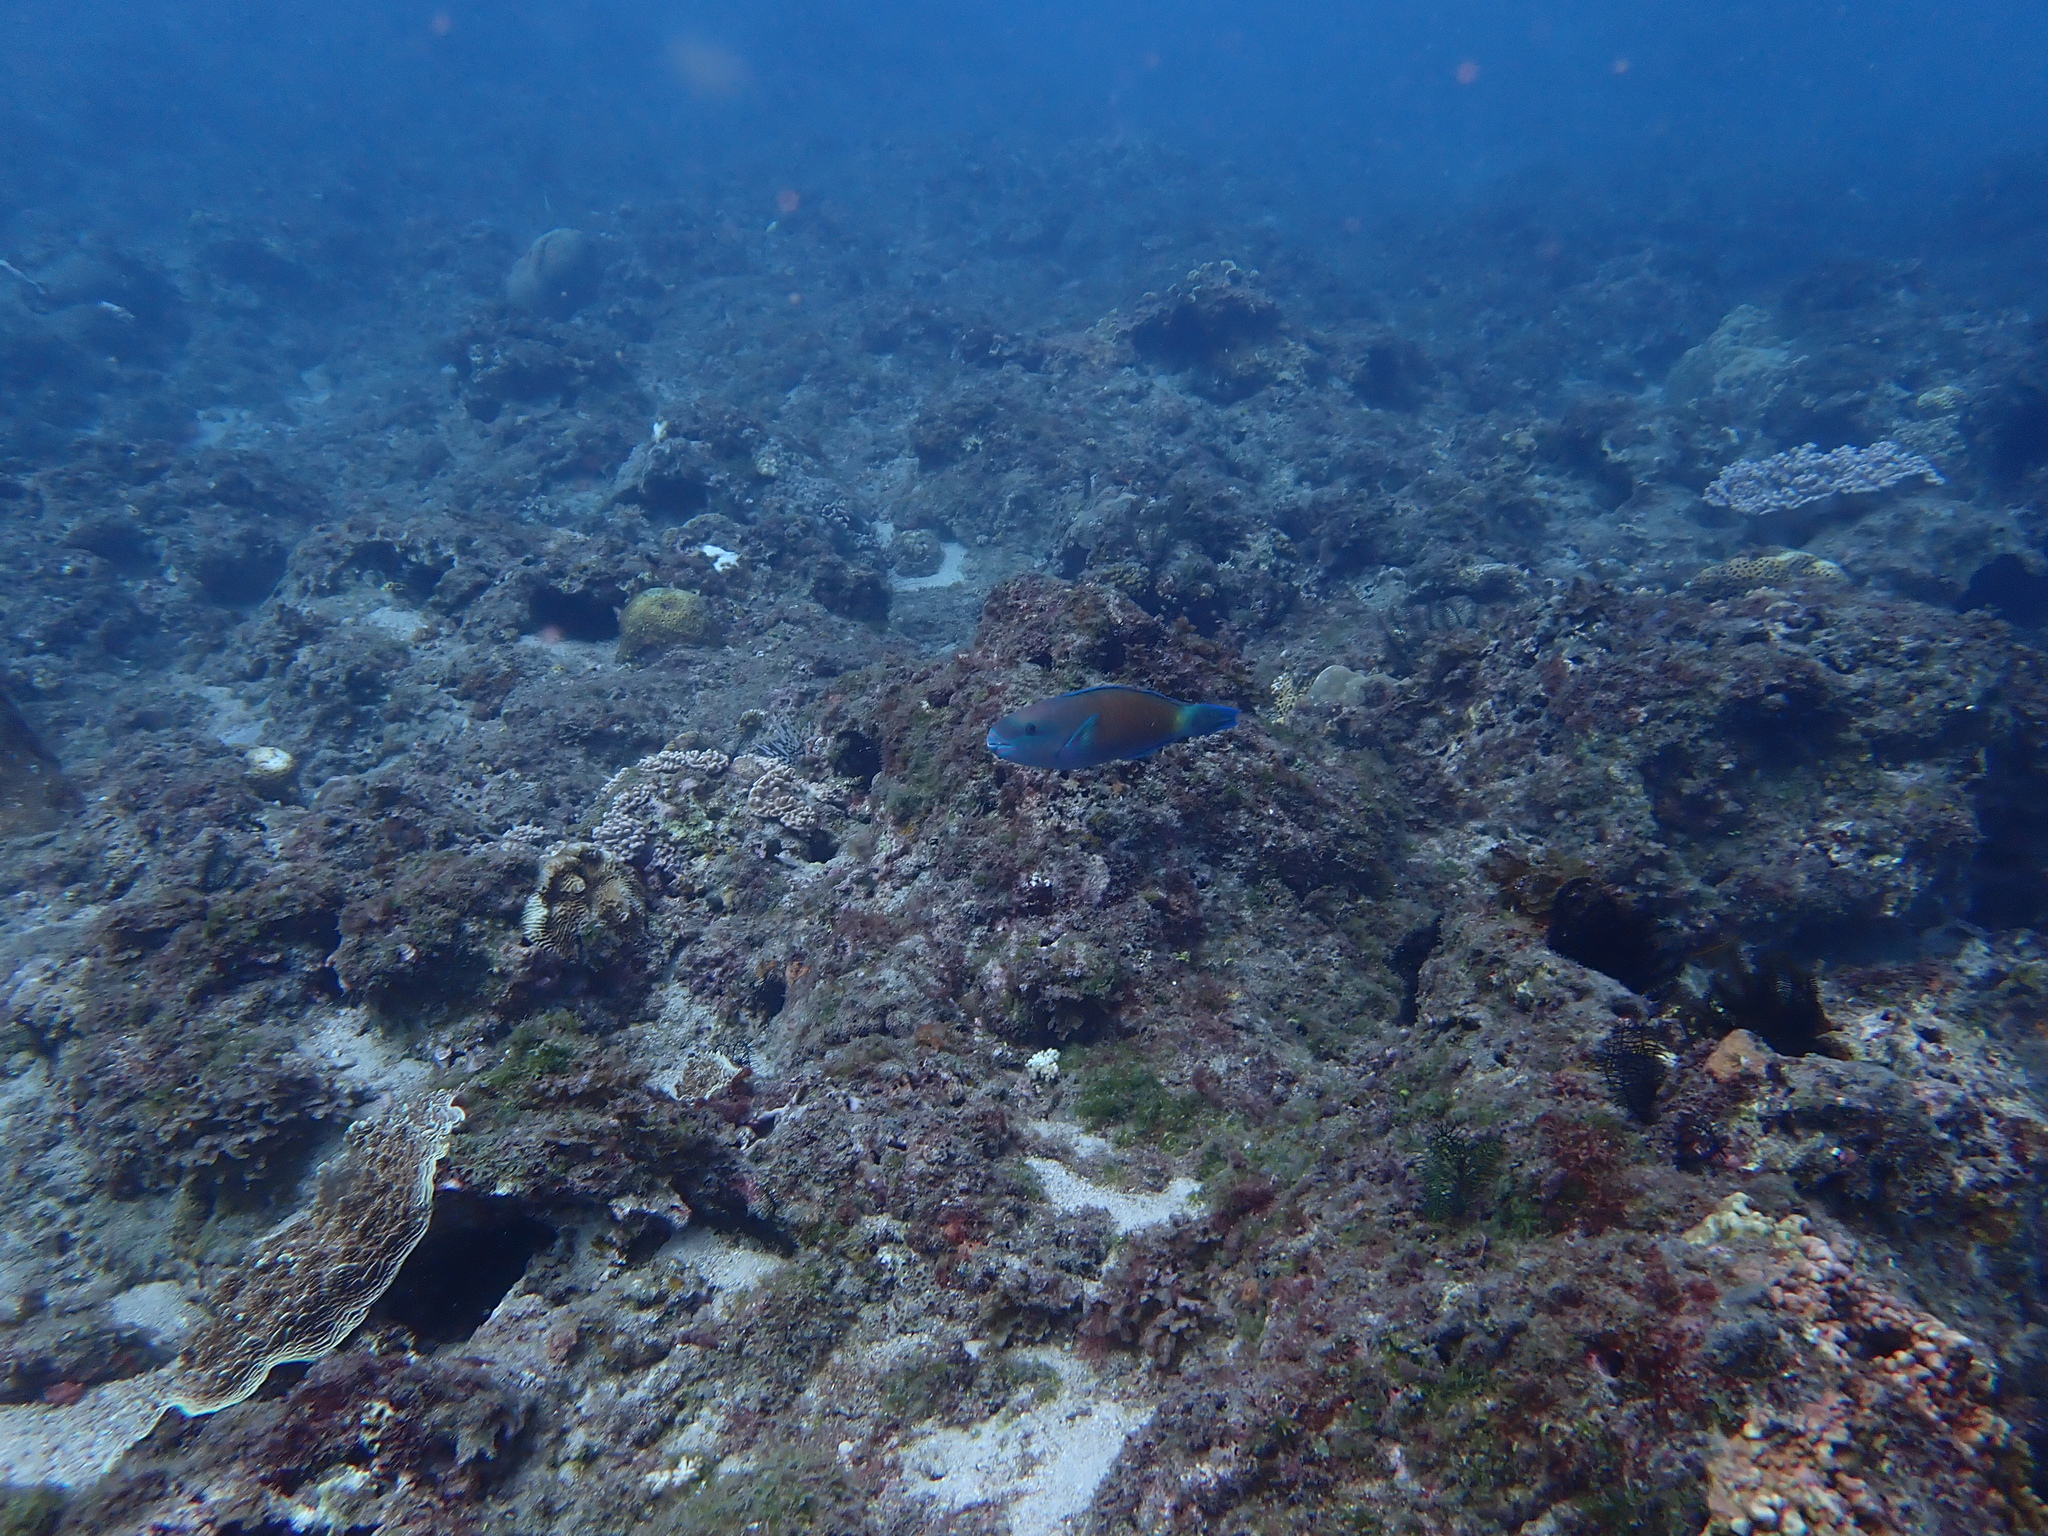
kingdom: Animalia
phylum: Chordata
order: Perciformes
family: Scaridae
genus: Chlorurus
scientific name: Chlorurus spilurus
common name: Bullethead parrotfish
